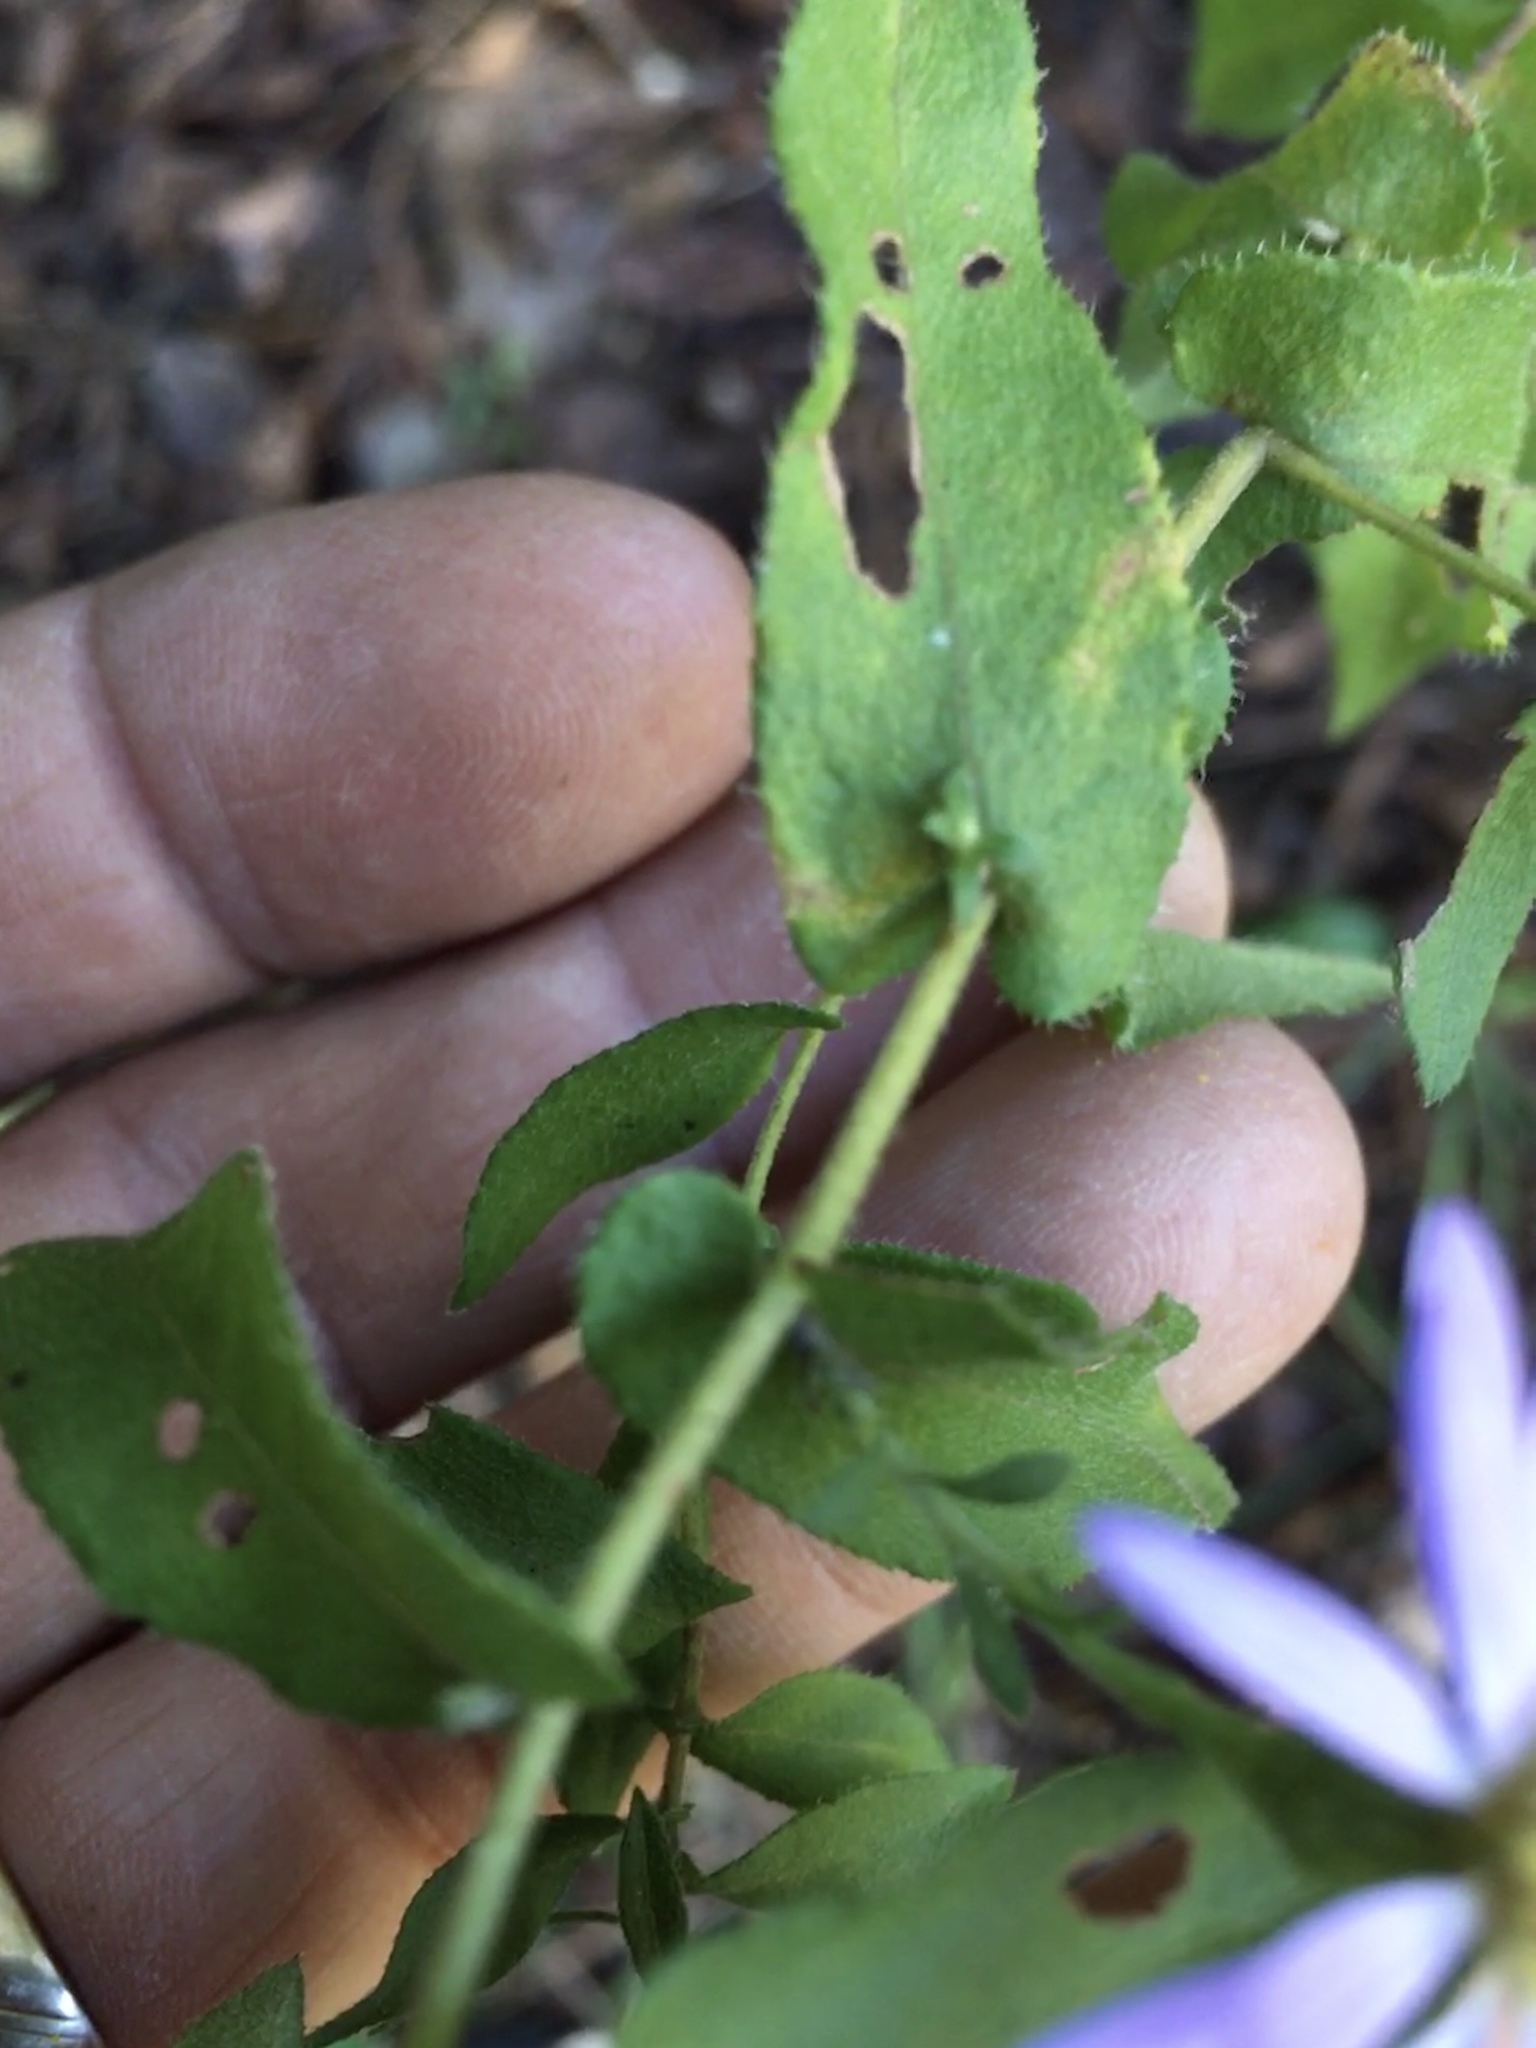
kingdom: Plantae
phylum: Tracheophyta
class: Magnoliopsida
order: Asterales
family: Asteraceae
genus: Symphyotrichum
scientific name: Symphyotrichum patens
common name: Late purple aster
